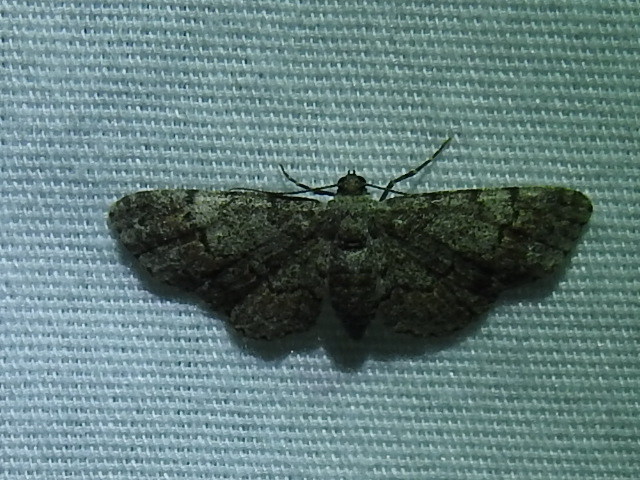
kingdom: Animalia
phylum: Arthropoda
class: Insecta
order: Lepidoptera
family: Geometridae
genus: Glenoides
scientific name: Glenoides texanaria
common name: Texas gray
